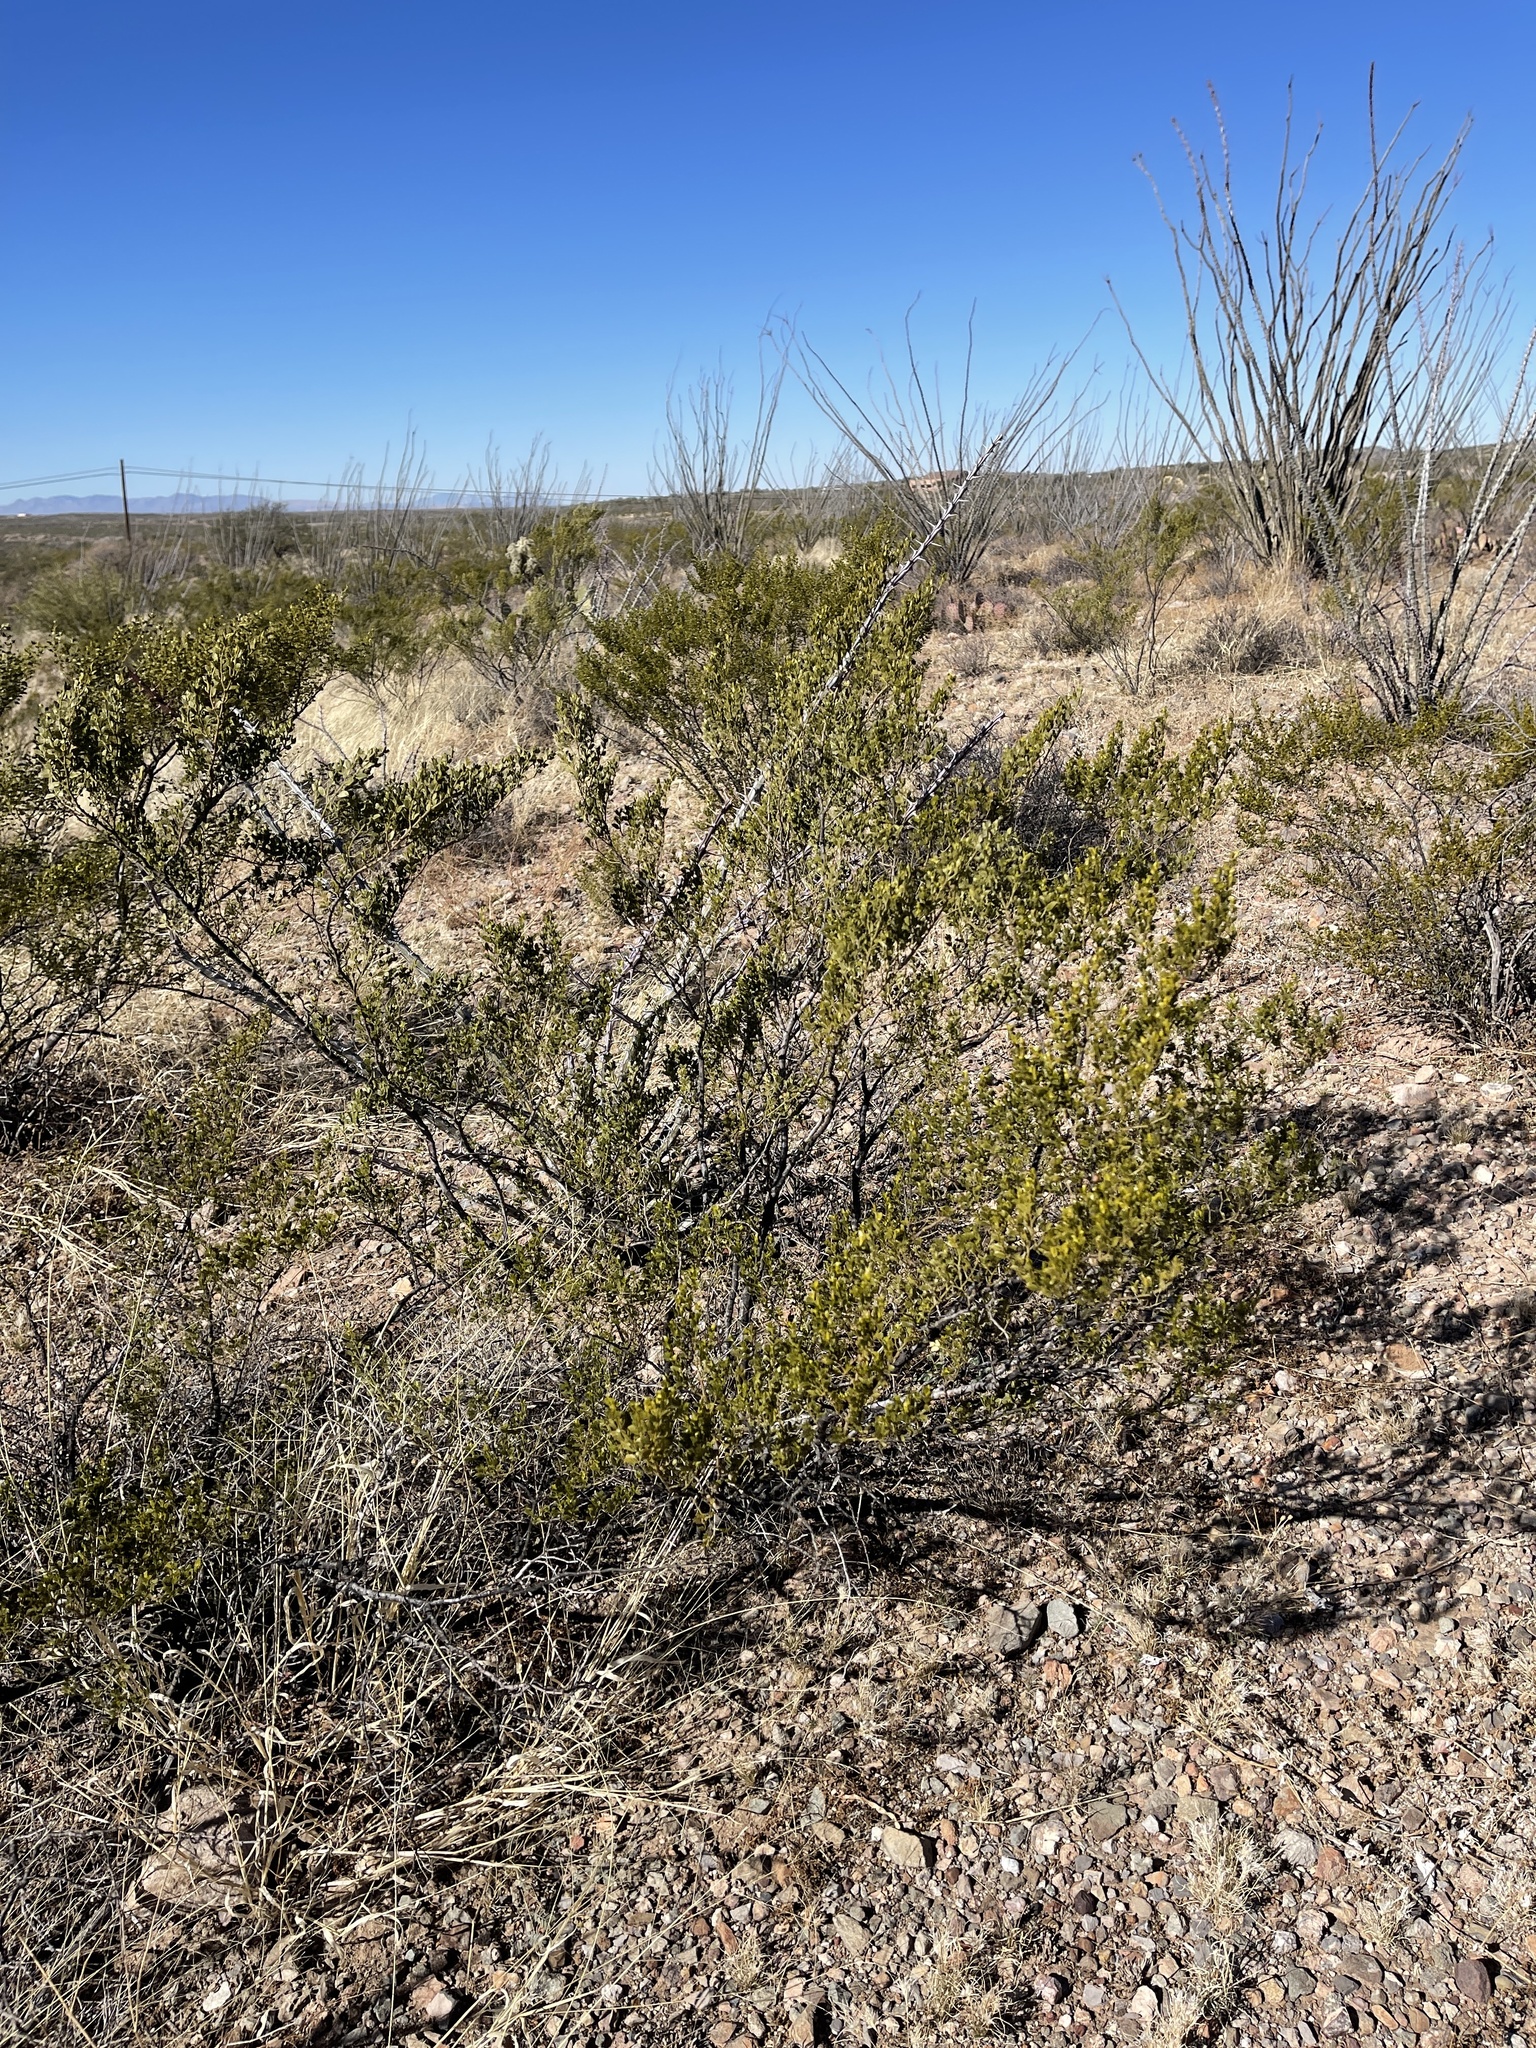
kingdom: Plantae
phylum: Tracheophyta
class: Magnoliopsida
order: Zygophyllales
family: Zygophyllaceae
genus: Larrea
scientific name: Larrea tridentata
